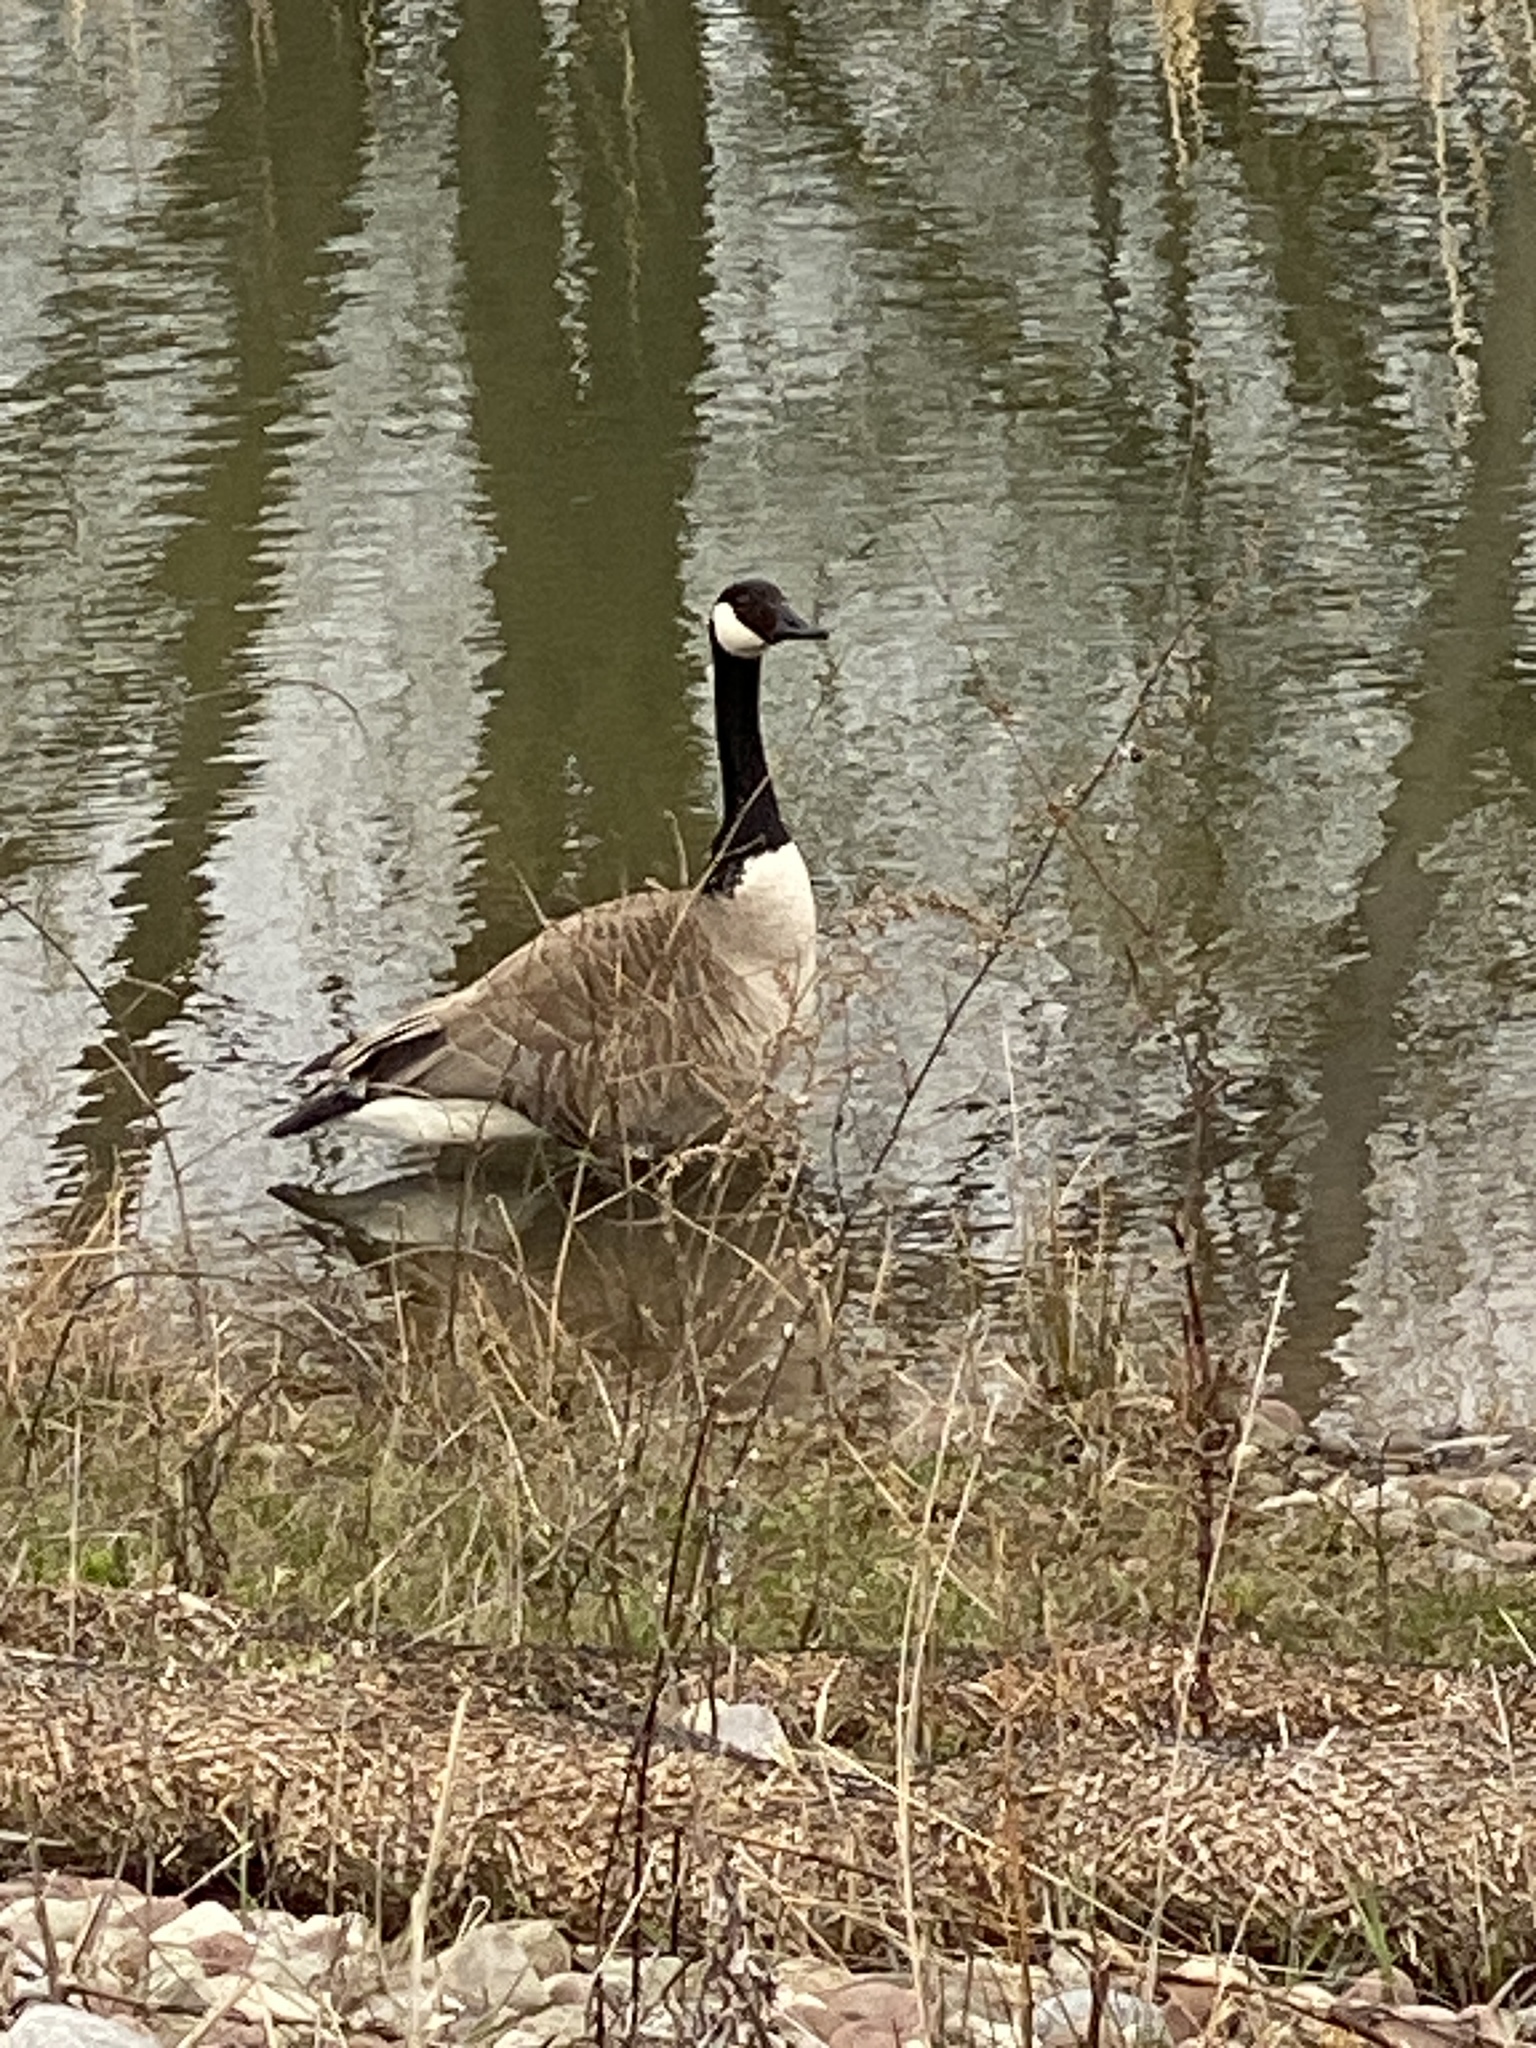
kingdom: Animalia
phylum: Chordata
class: Aves
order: Anseriformes
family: Anatidae
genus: Branta
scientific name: Branta canadensis
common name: Canada goose
